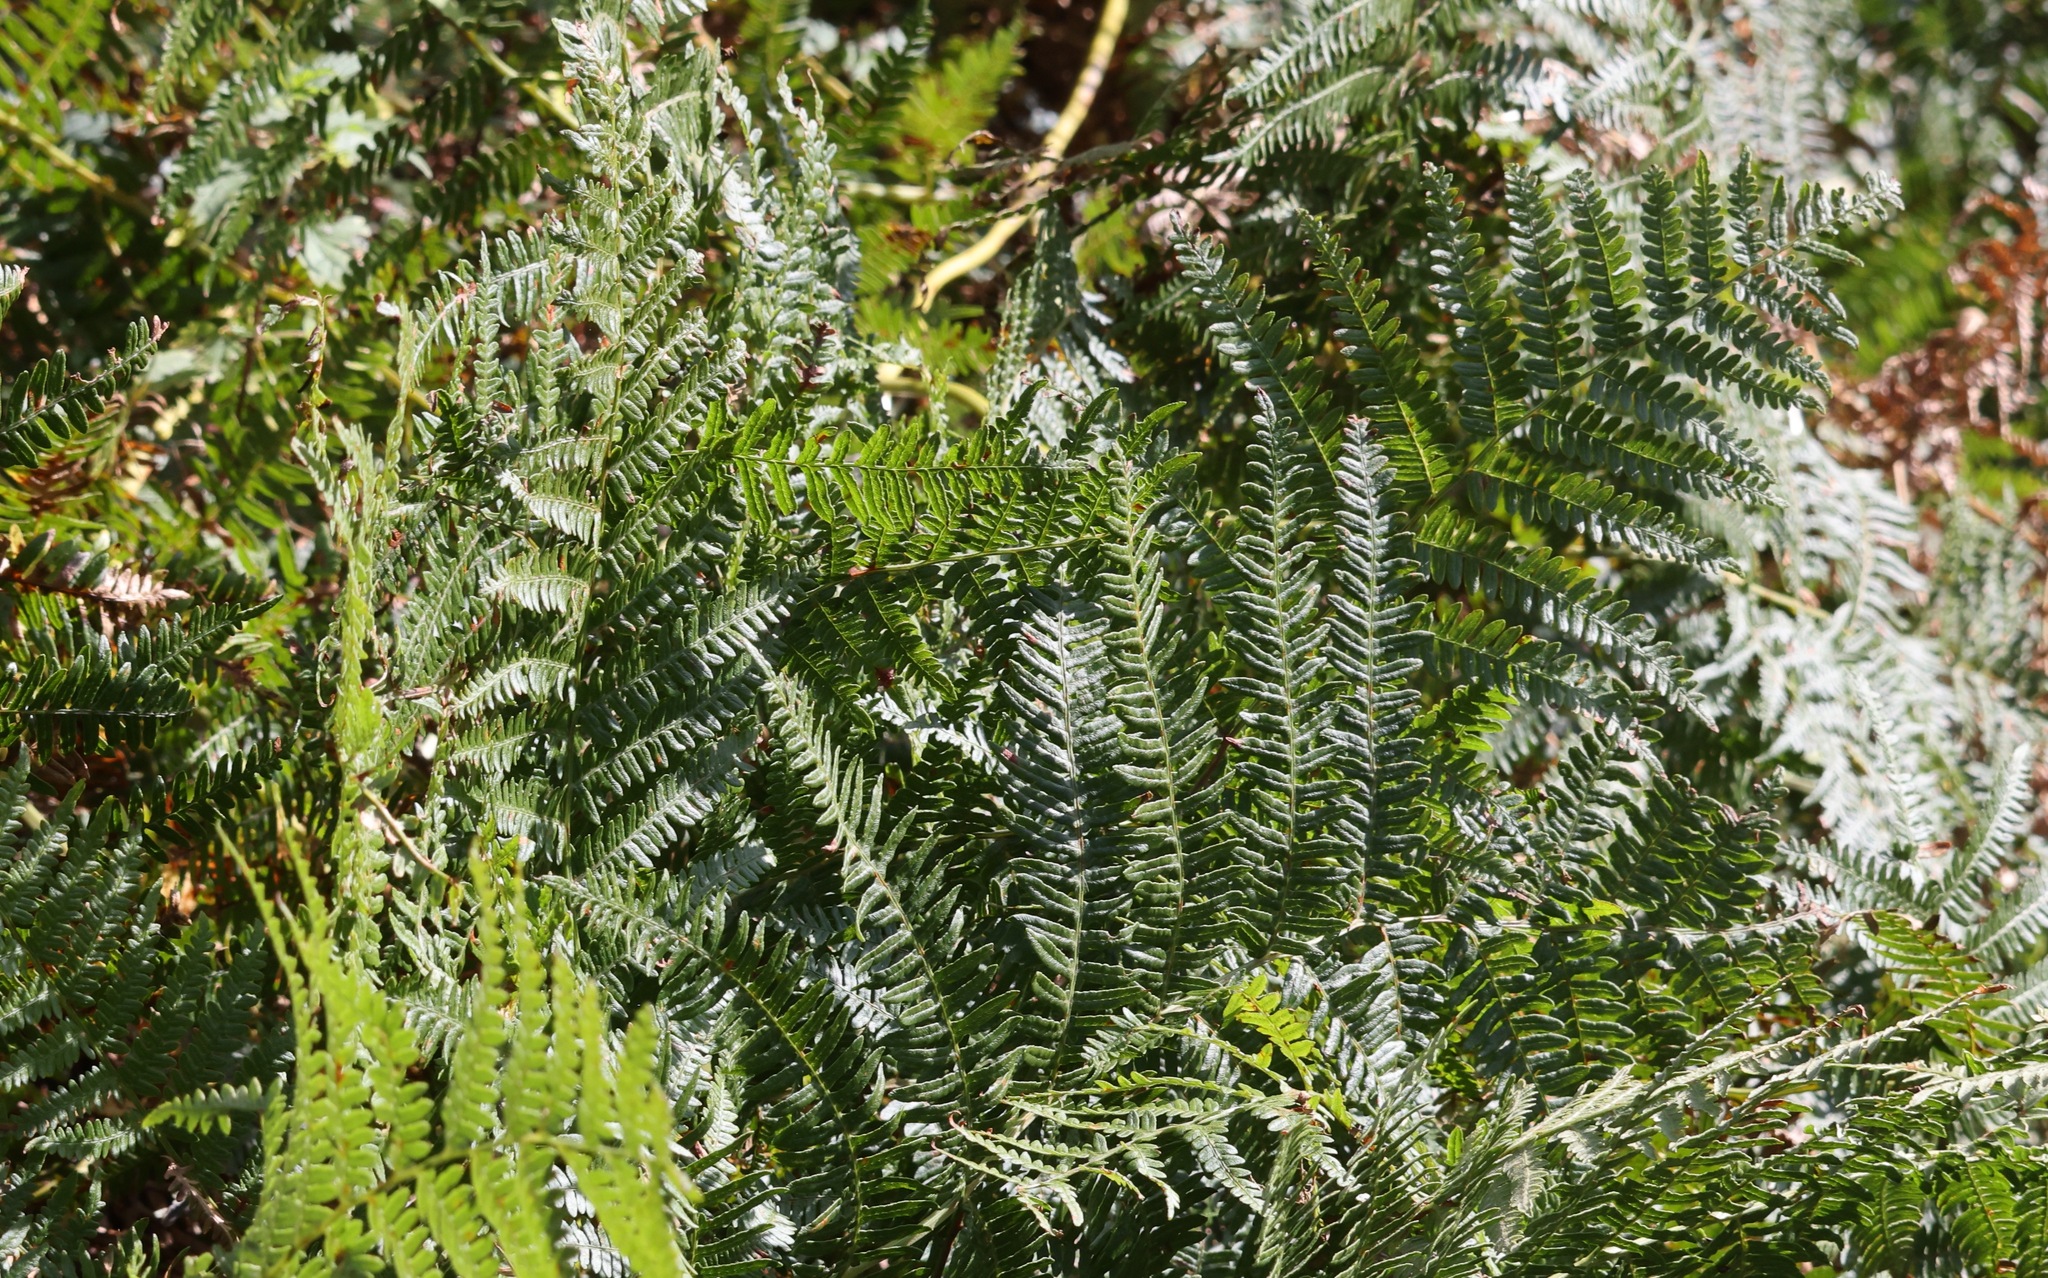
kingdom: Plantae
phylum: Tracheophyta
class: Polypodiopsida
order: Polypodiales
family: Dennstaedtiaceae
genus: Pteridium
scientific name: Pteridium aquilinum
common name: Bracken
